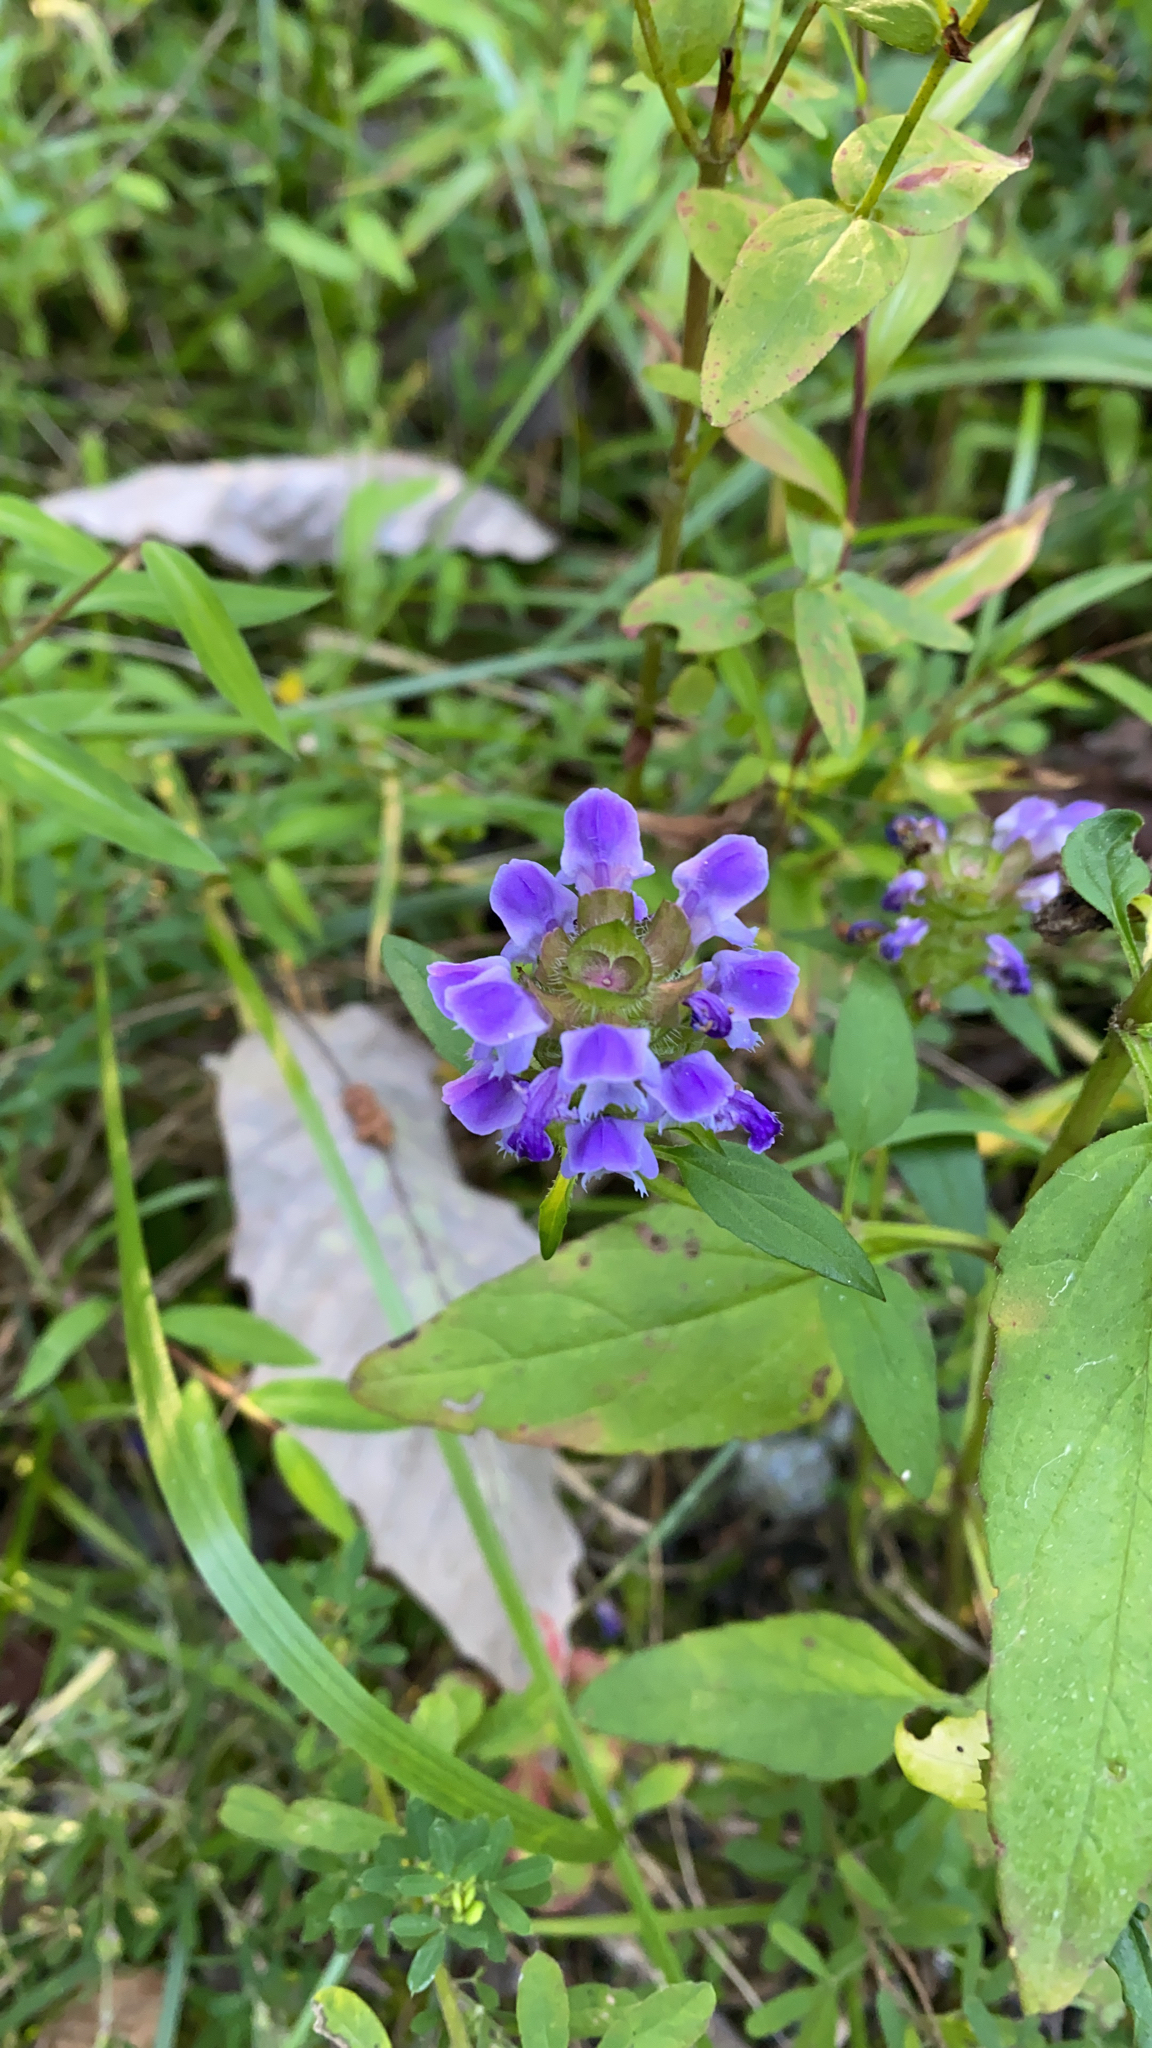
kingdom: Plantae
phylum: Tracheophyta
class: Magnoliopsida
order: Lamiales
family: Lamiaceae
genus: Prunella
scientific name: Prunella vulgaris
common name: Heal-all
